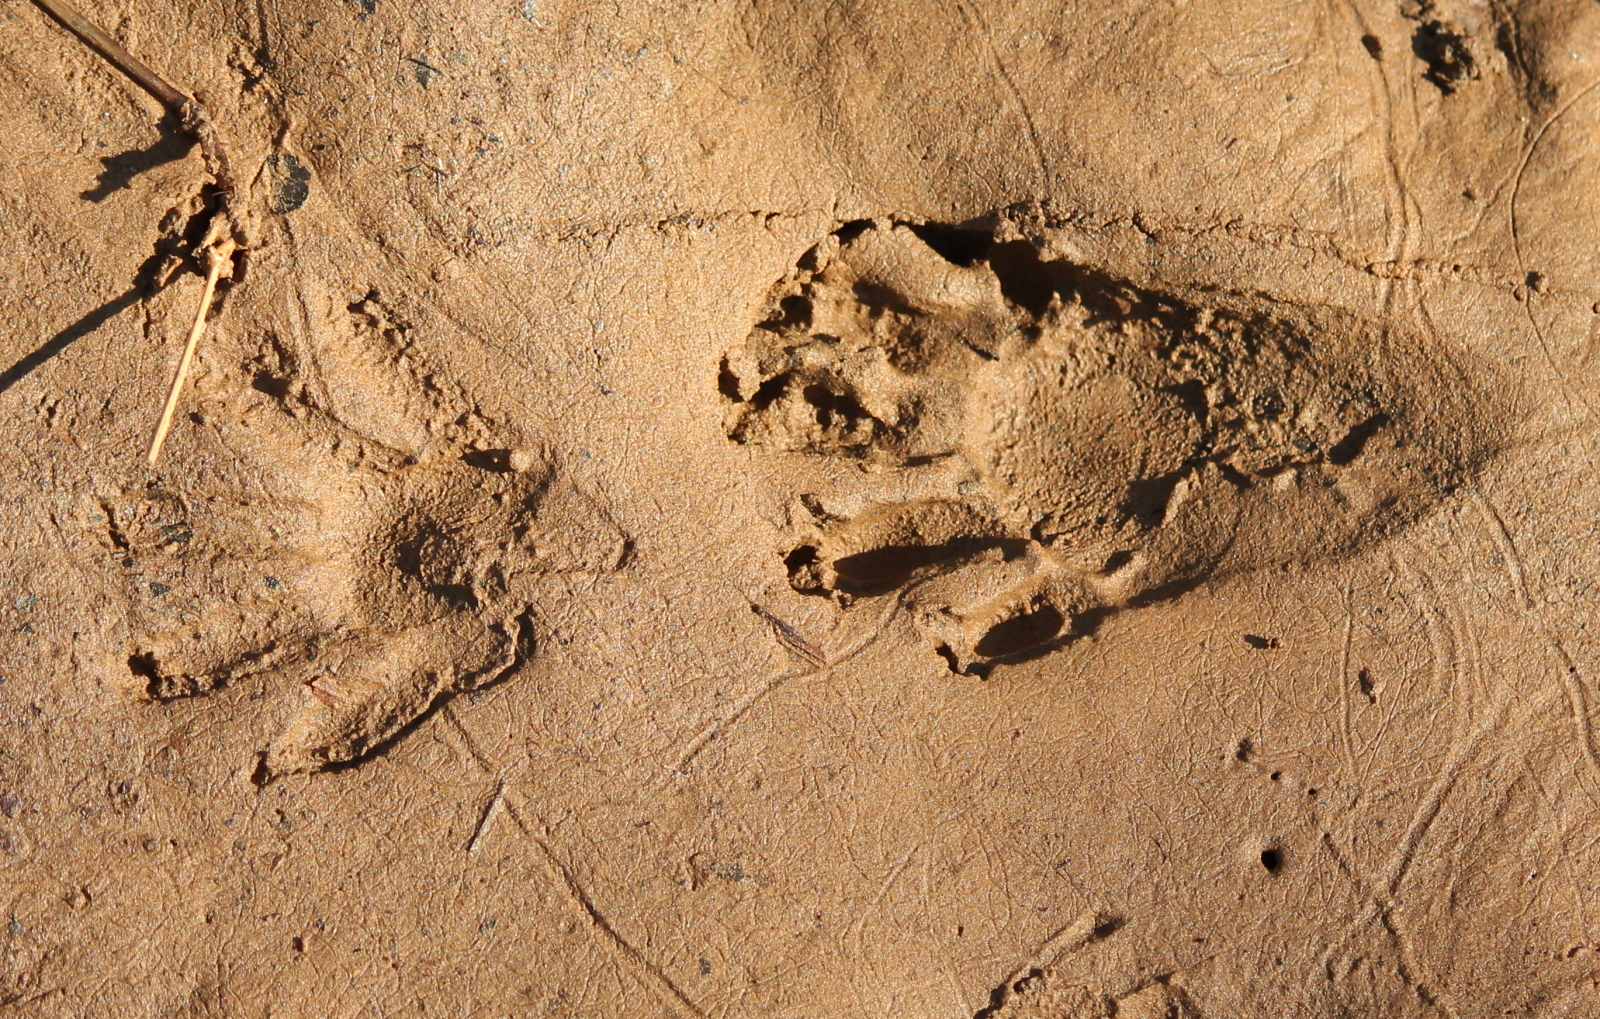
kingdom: Animalia
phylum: Chordata
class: Mammalia
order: Carnivora
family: Procyonidae
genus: Procyon
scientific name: Procyon lotor
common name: Raccoon
